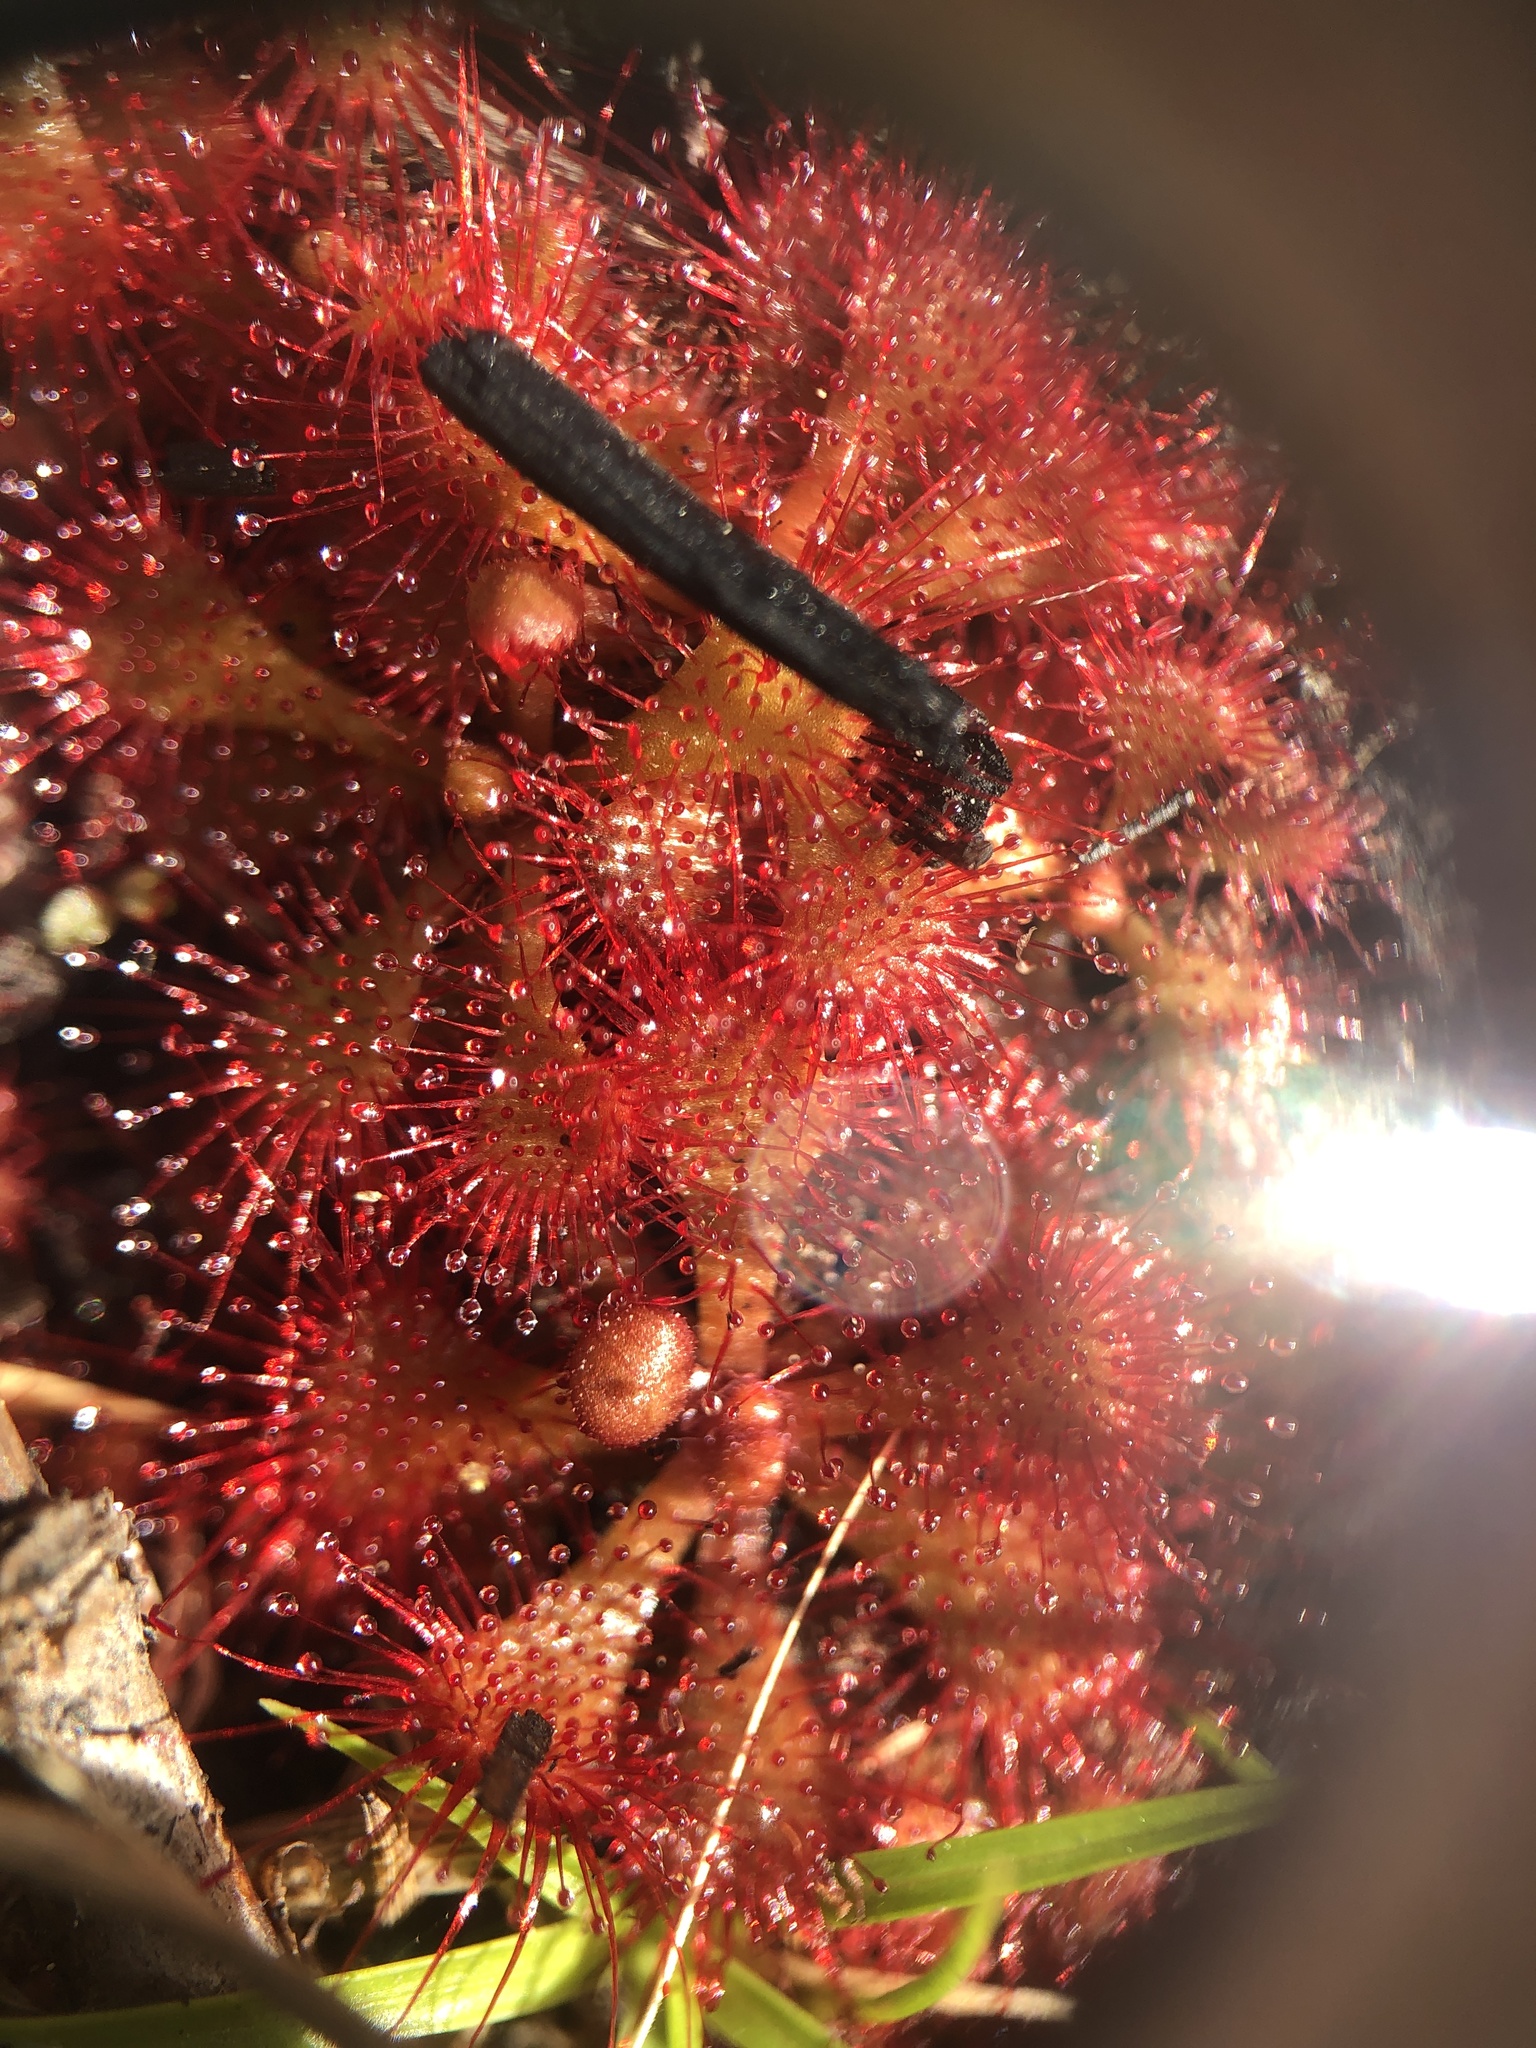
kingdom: Plantae
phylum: Tracheophyta
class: Magnoliopsida
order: Caryophyllales
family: Droseraceae
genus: Drosera
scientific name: Drosera capillaris
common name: Pink sundew
